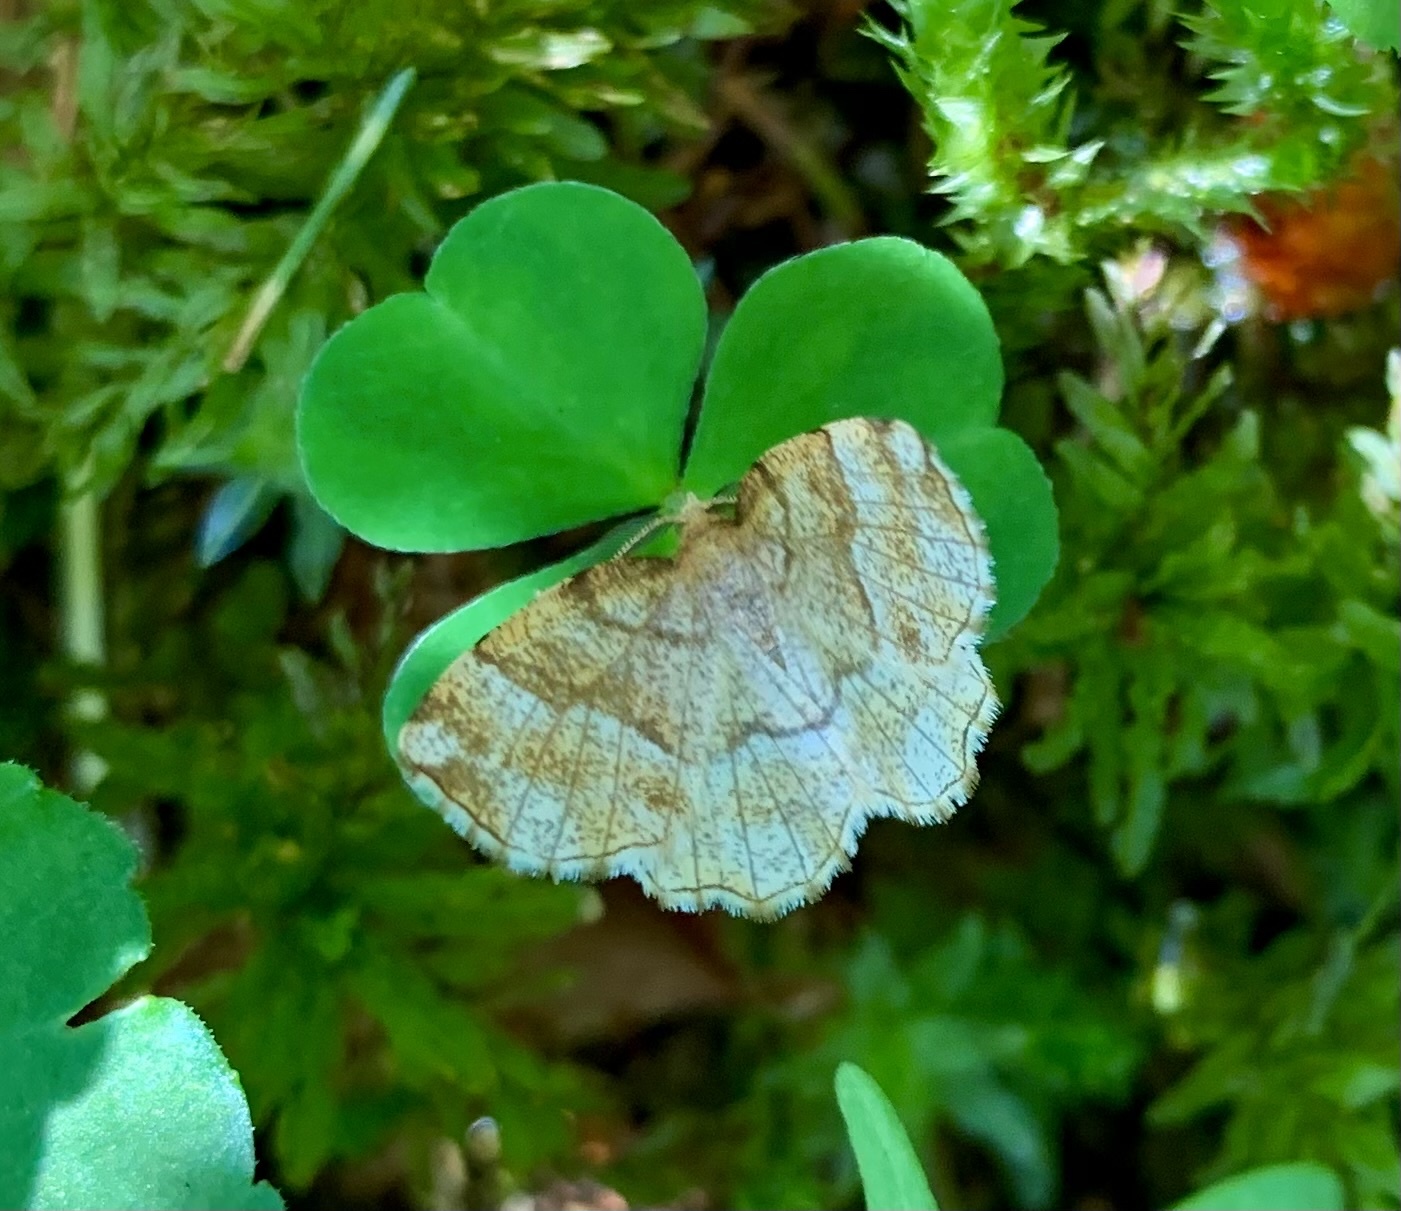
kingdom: Animalia
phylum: Arthropoda
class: Insecta
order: Lepidoptera
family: Geometridae
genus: Cepphis
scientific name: Cepphis advenaria
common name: Little thorn
